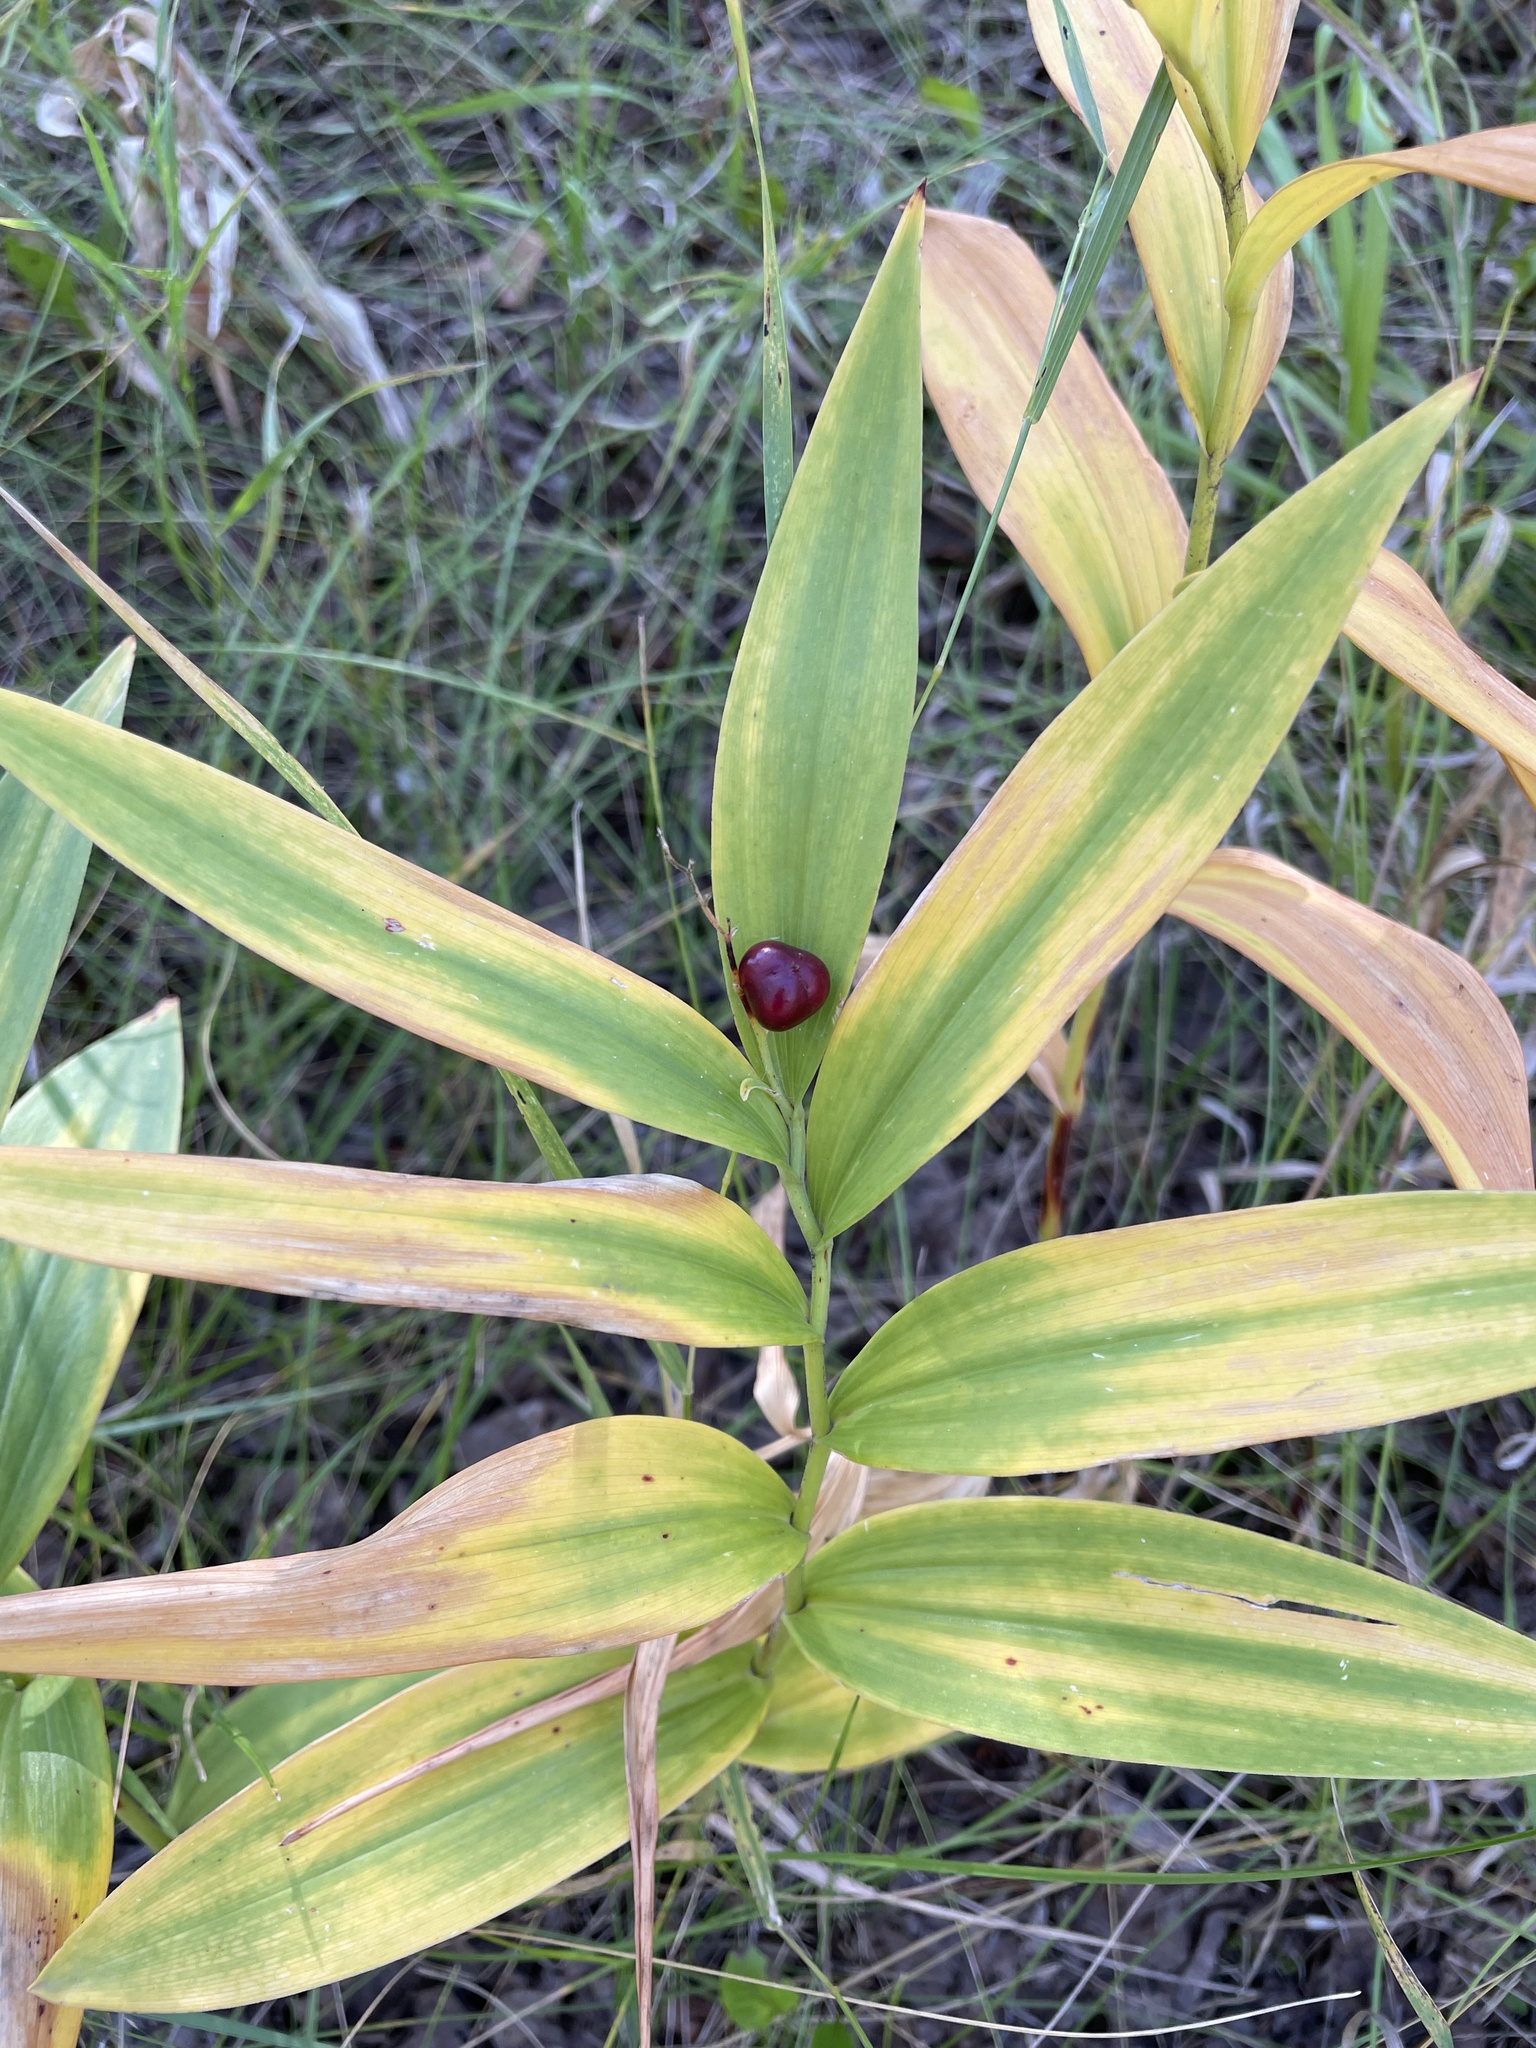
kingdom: Plantae
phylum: Tracheophyta
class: Liliopsida
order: Asparagales
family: Asparagaceae
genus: Maianthemum
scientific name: Maianthemum stellatum
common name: Little false solomon's seal
